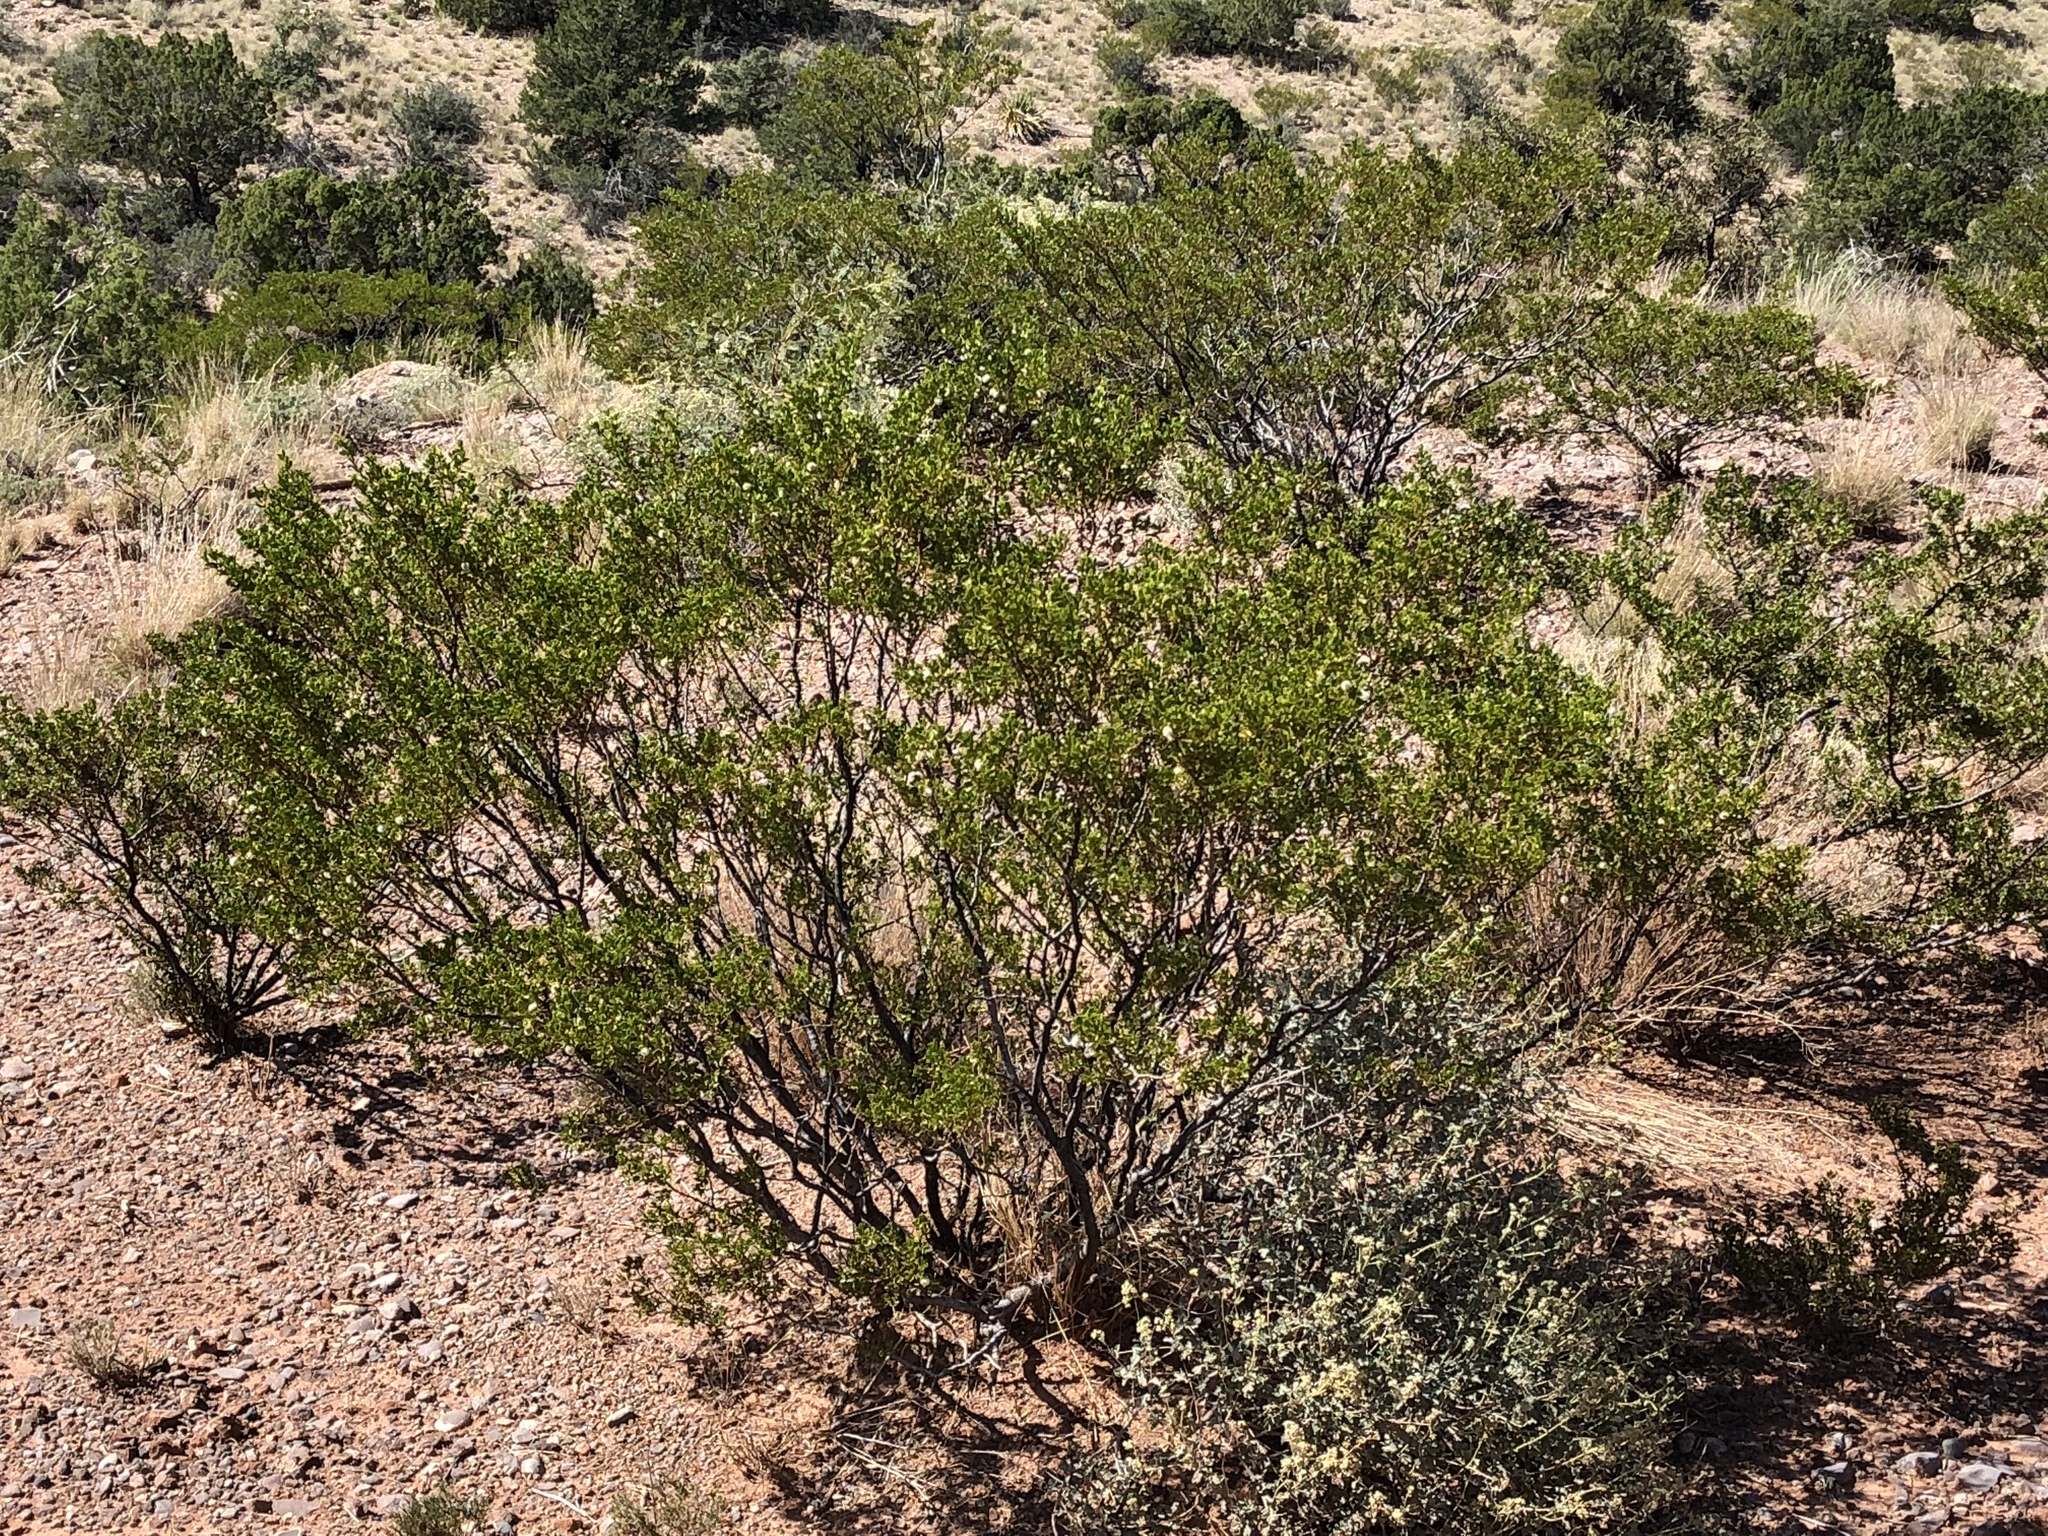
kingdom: Plantae
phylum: Tracheophyta
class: Magnoliopsida
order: Zygophyllales
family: Zygophyllaceae
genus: Larrea
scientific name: Larrea tridentata
